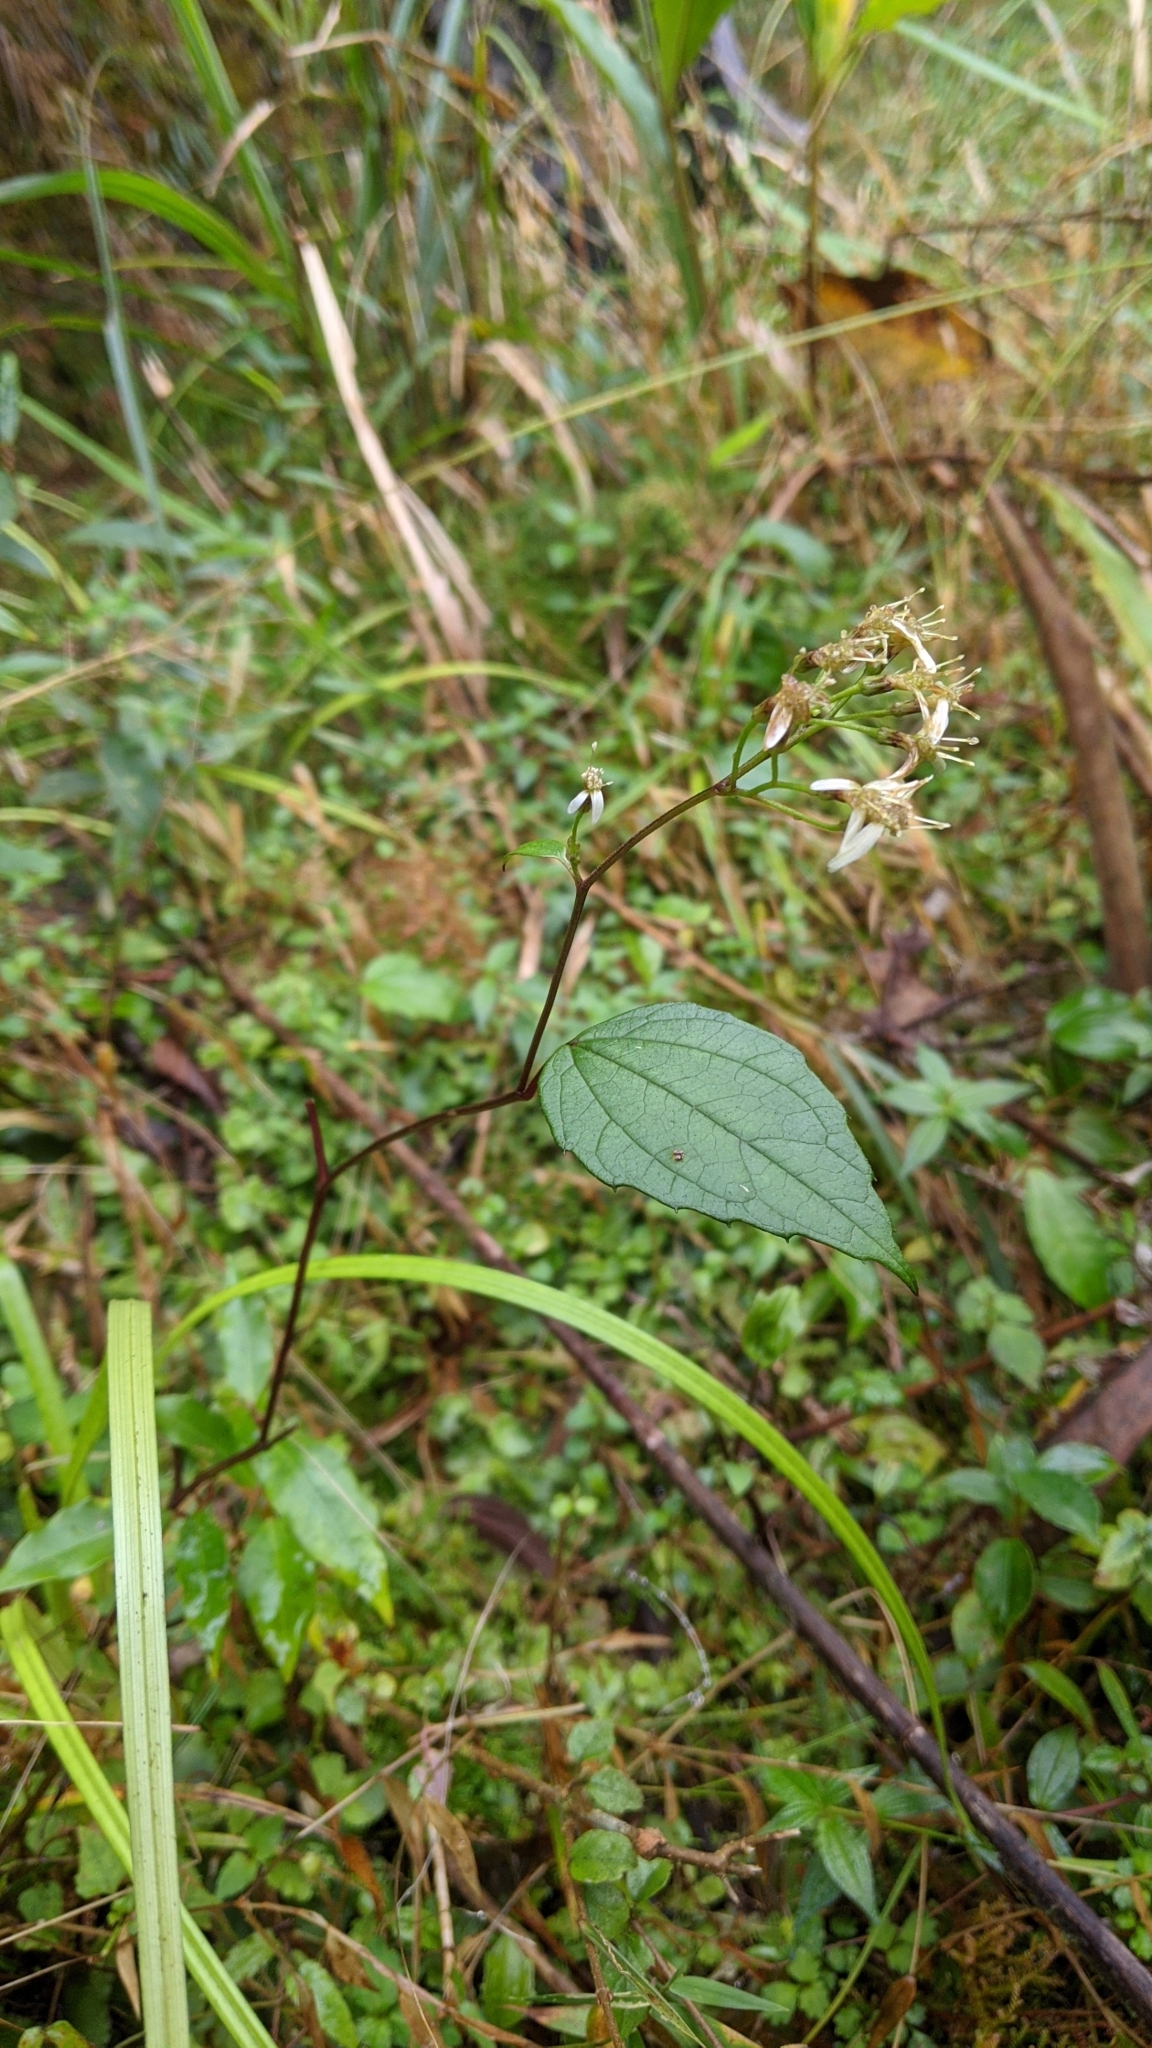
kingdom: Plantae
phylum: Tracheophyta
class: Magnoliopsida
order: Asterales
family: Asteraceae
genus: Aster
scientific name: Aster formosanus
